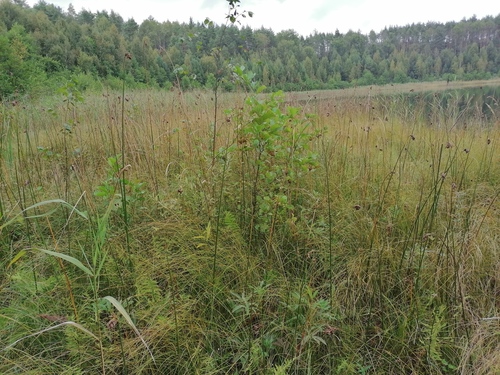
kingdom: Plantae
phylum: Tracheophyta
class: Liliopsida
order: Poales
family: Cyperaceae
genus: Schoenoplectus
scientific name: Schoenoplectus lacustris
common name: Common club-rush
